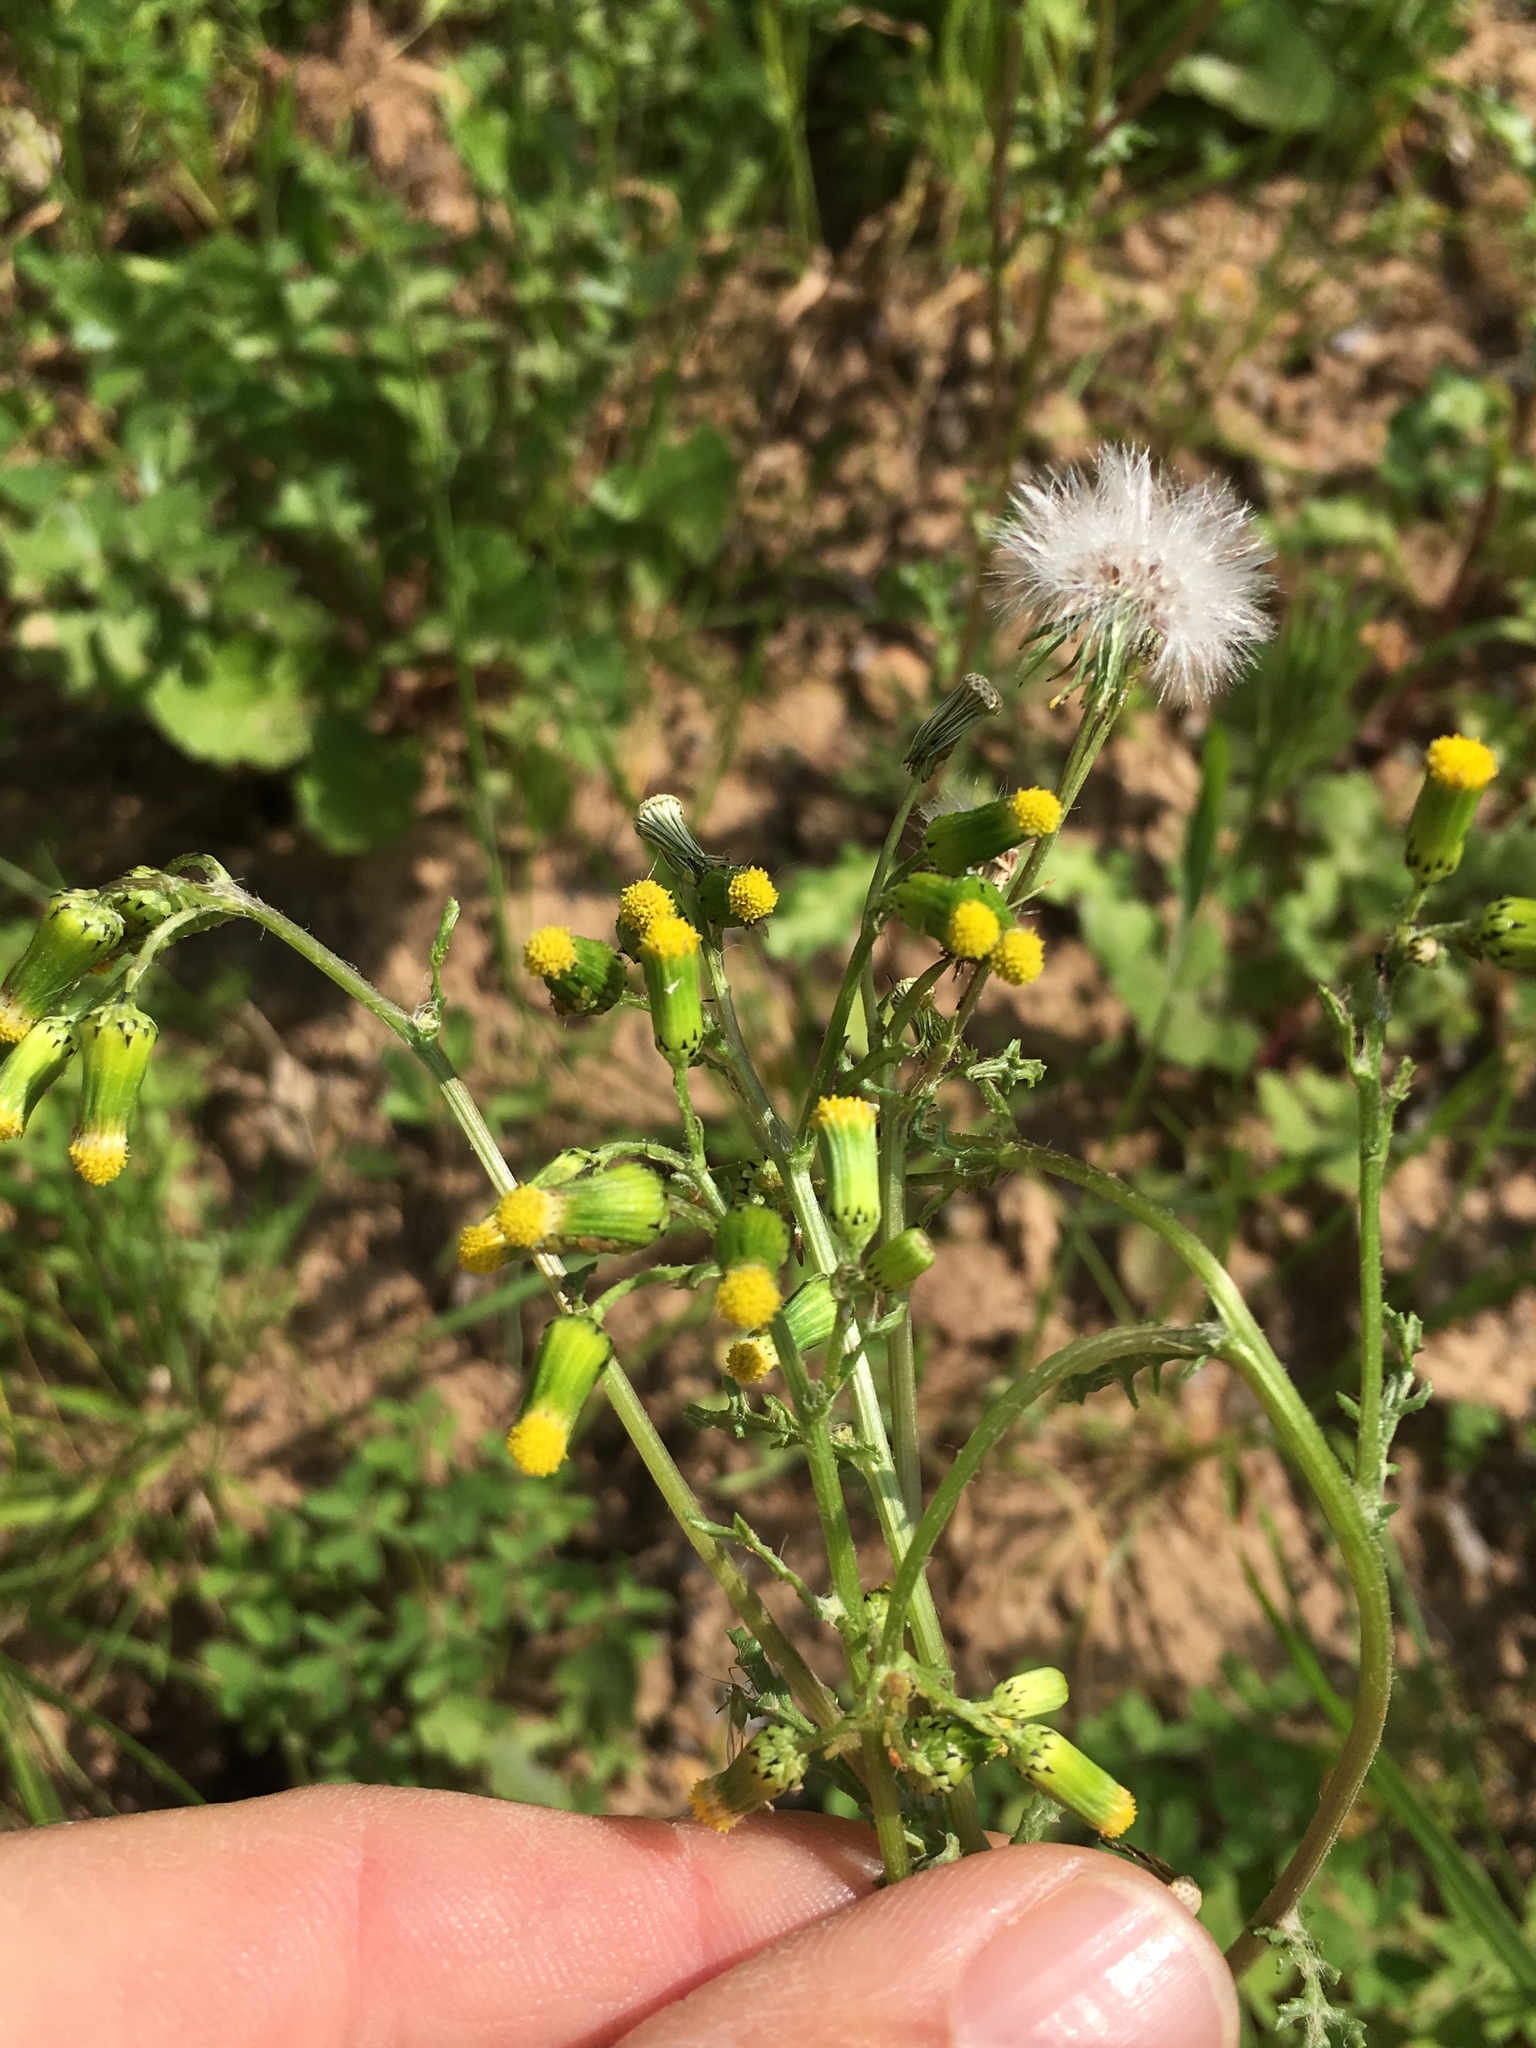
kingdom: Plantae
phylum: Tracheophyta
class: Magnoliopsida
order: Asterales
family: Asteraceae
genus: Senecio
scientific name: Senecio vulgaris
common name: Old-man-in-the-spring
